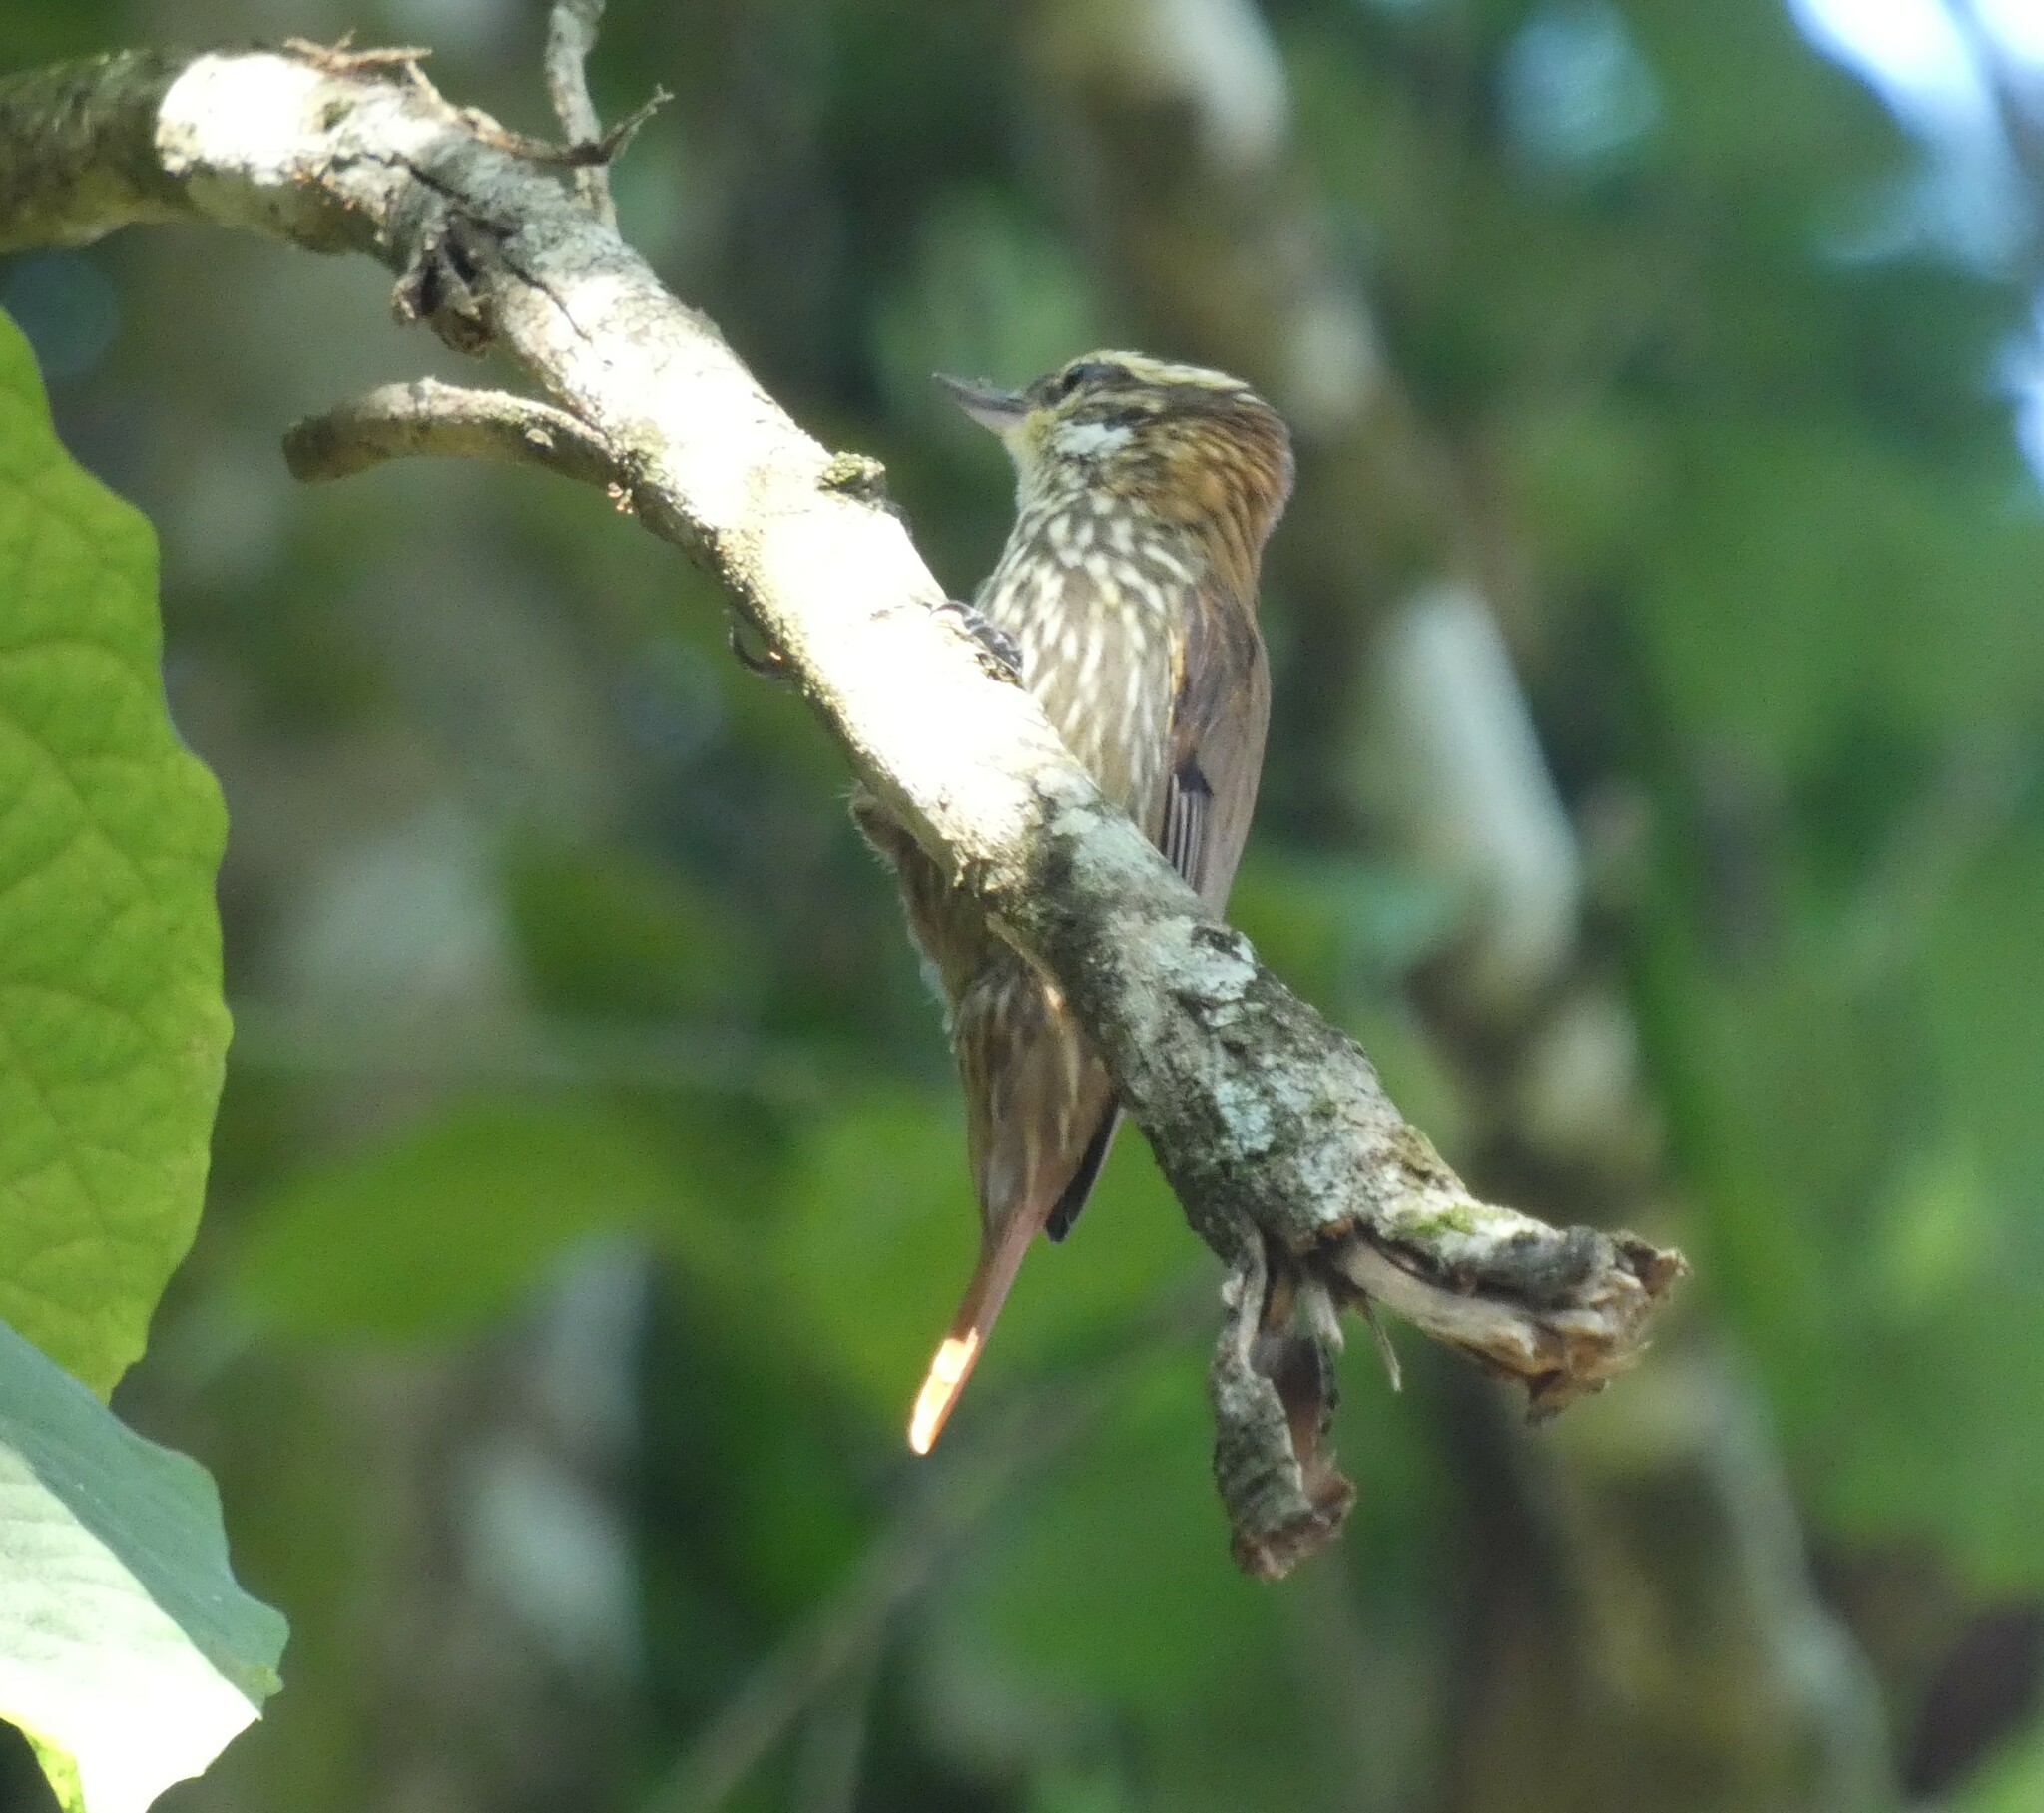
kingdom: Animalia
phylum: Chordata
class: Aves
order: Passeriformes
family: Furnariidae
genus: Xenops
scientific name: Xenops rutilans
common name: Streaked xenops
